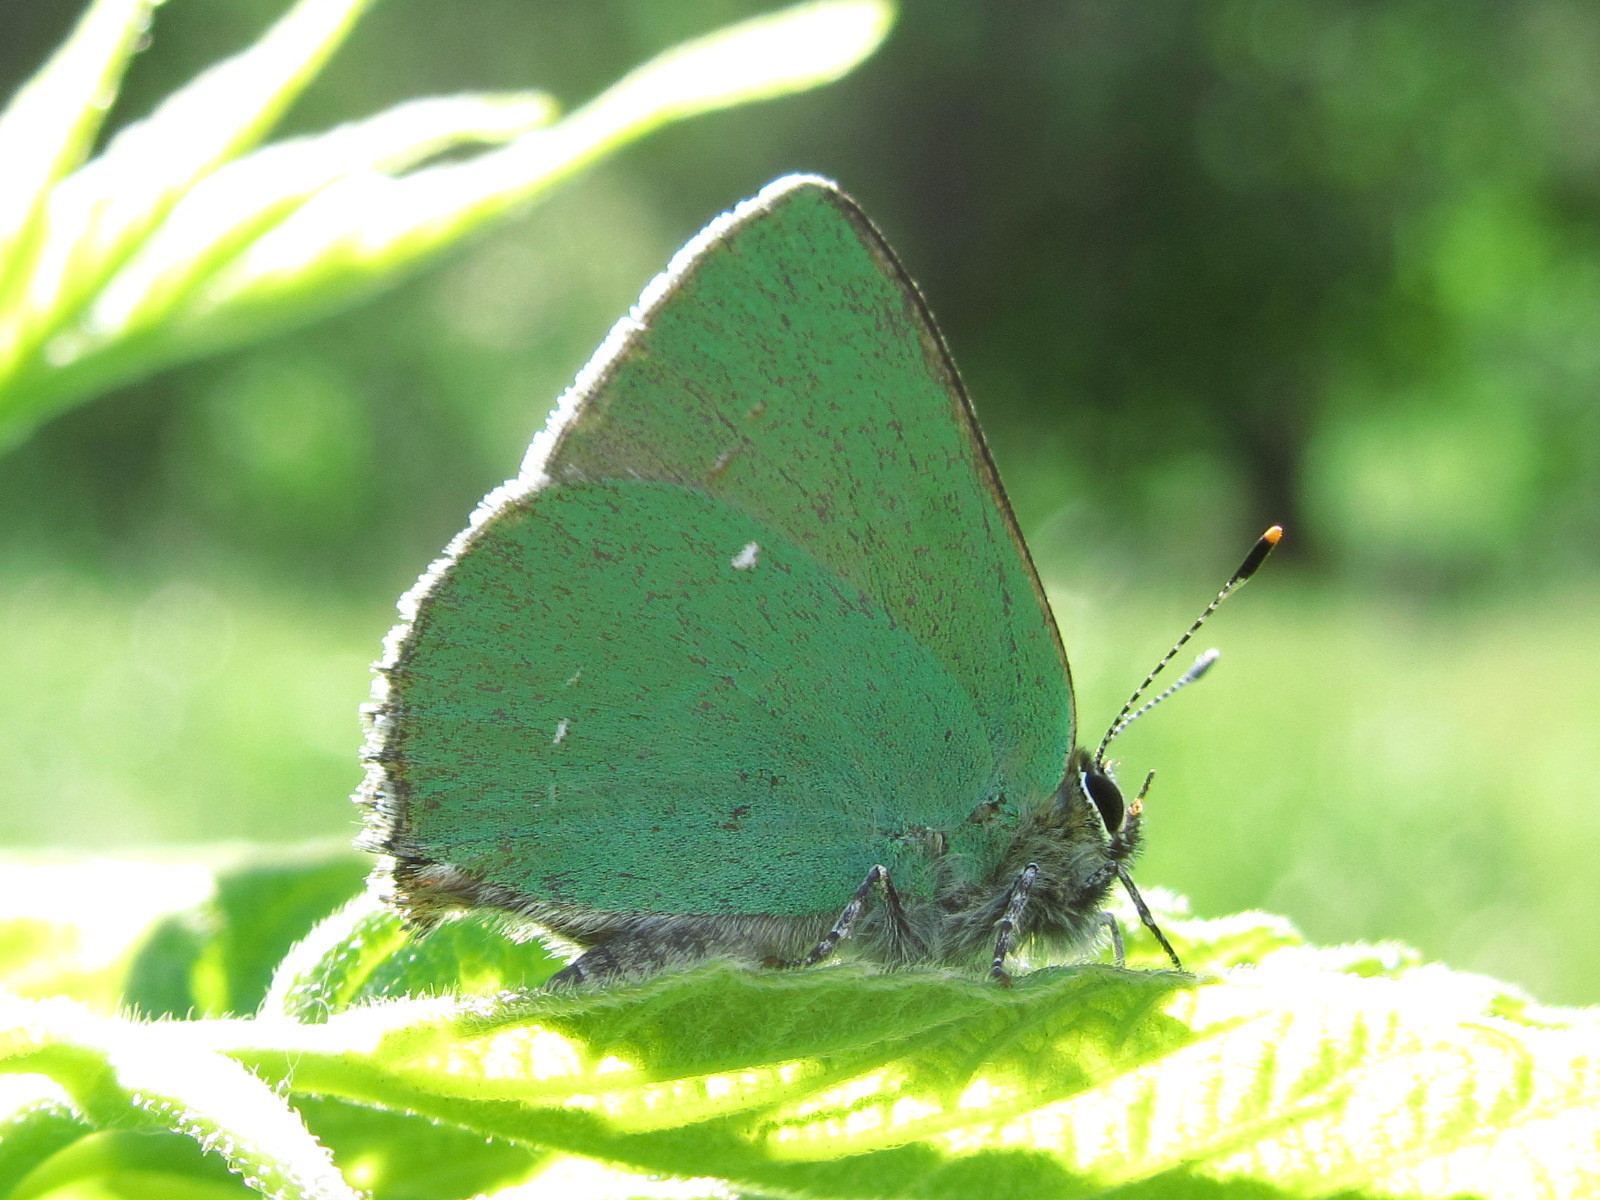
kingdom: Animalia
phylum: Arthropoda
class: Insecta
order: Lepidoptera
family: Lycaenidae
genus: Callophrys
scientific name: Callophrys rubi
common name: Green hairstreak
